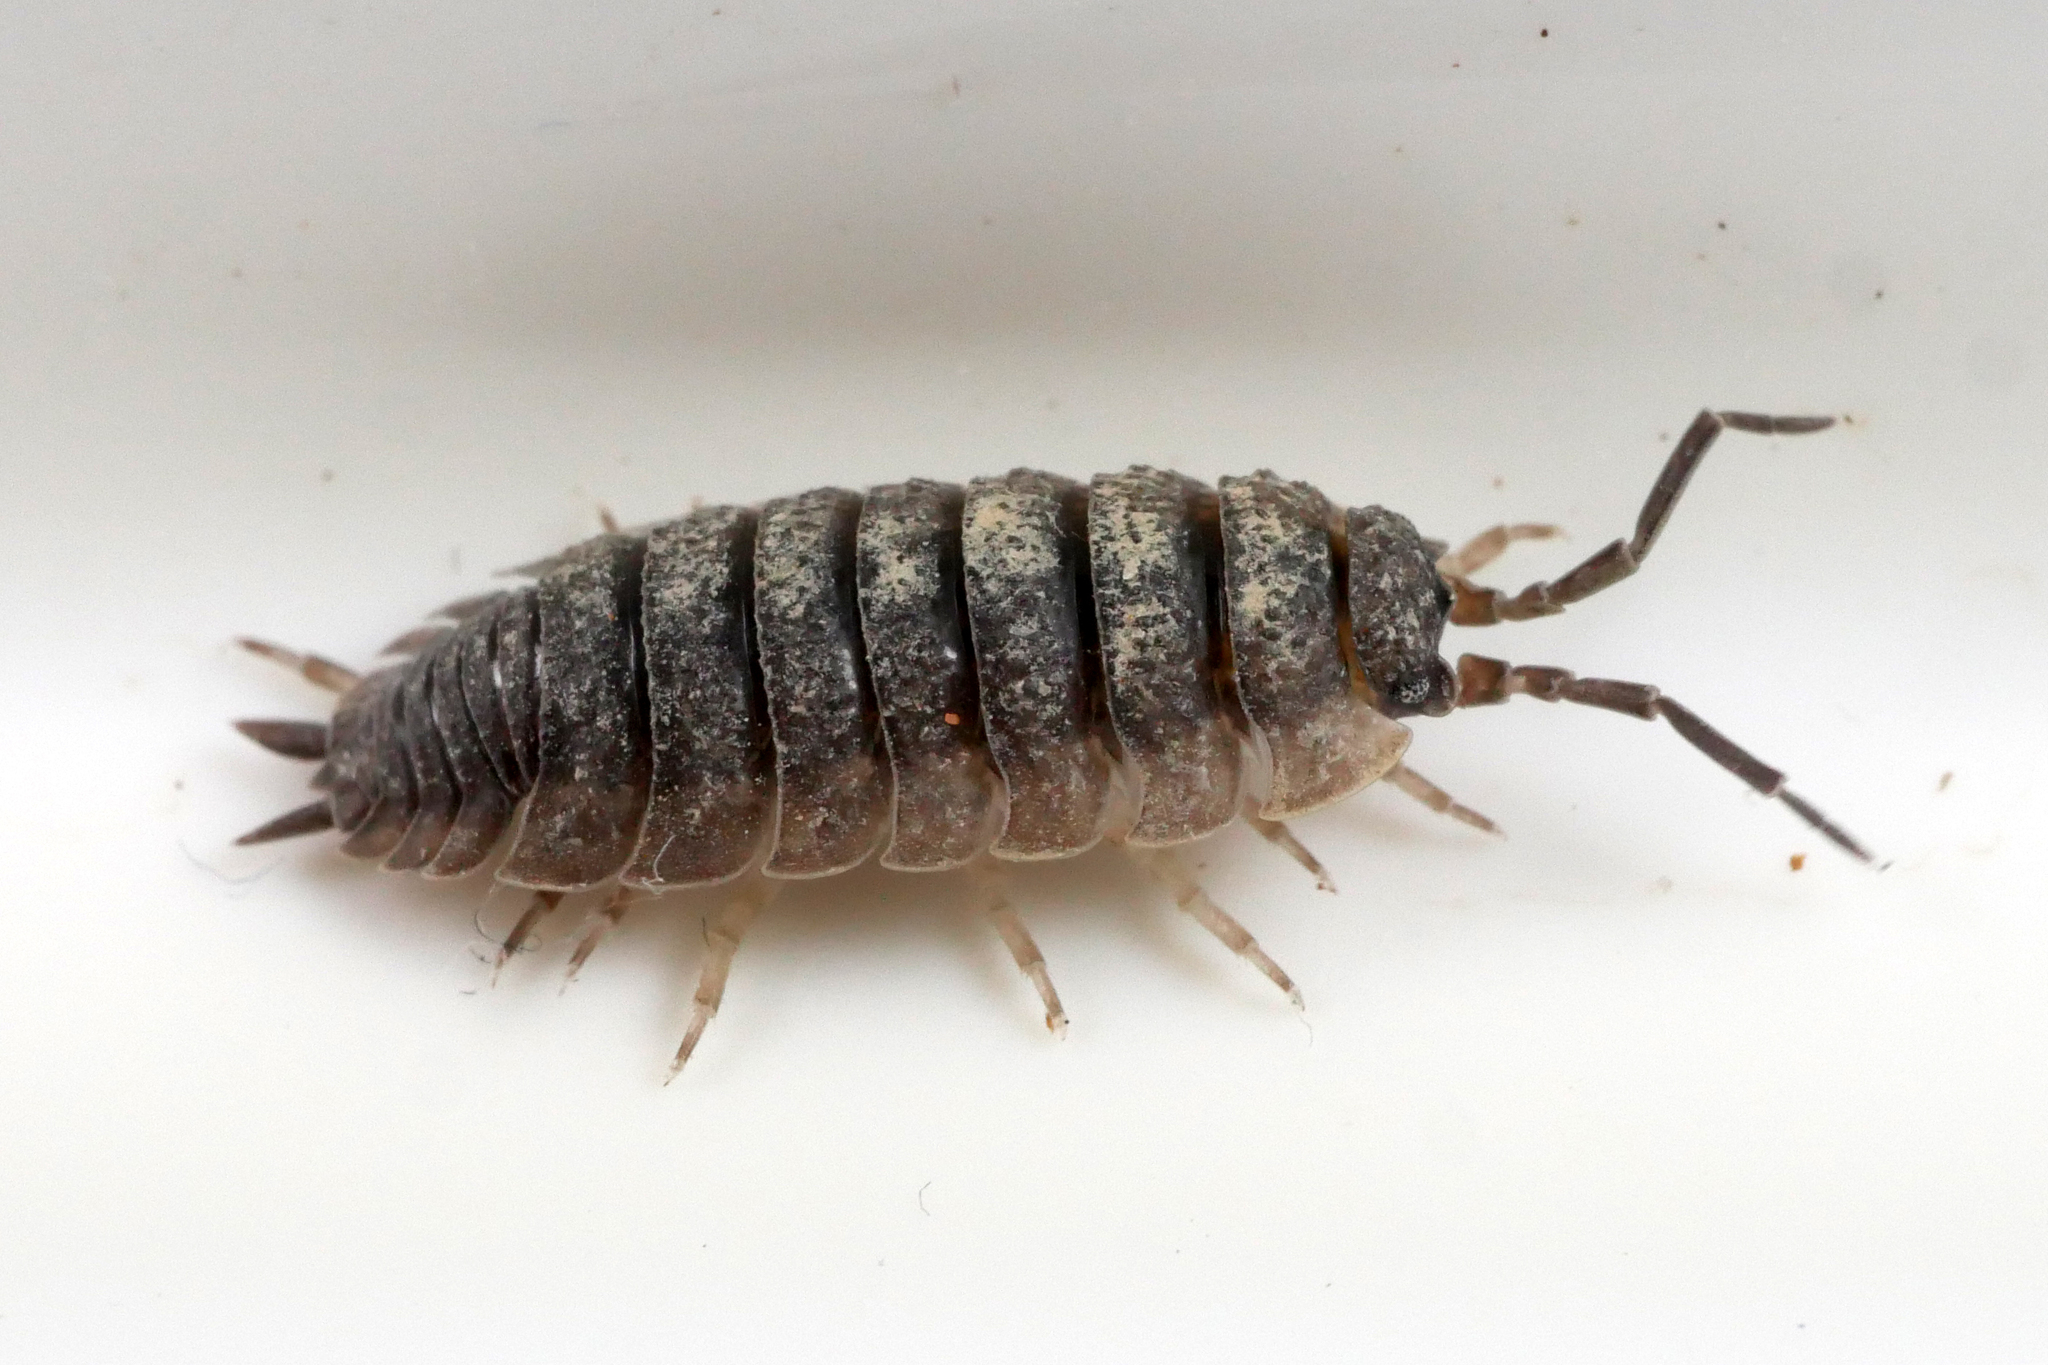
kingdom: Animalia
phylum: Arthropoda
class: Malacostraca
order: Isopoda
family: Porcellionidae
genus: Porcellio
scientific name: Porcellio scaber
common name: Common rough woodlouse
